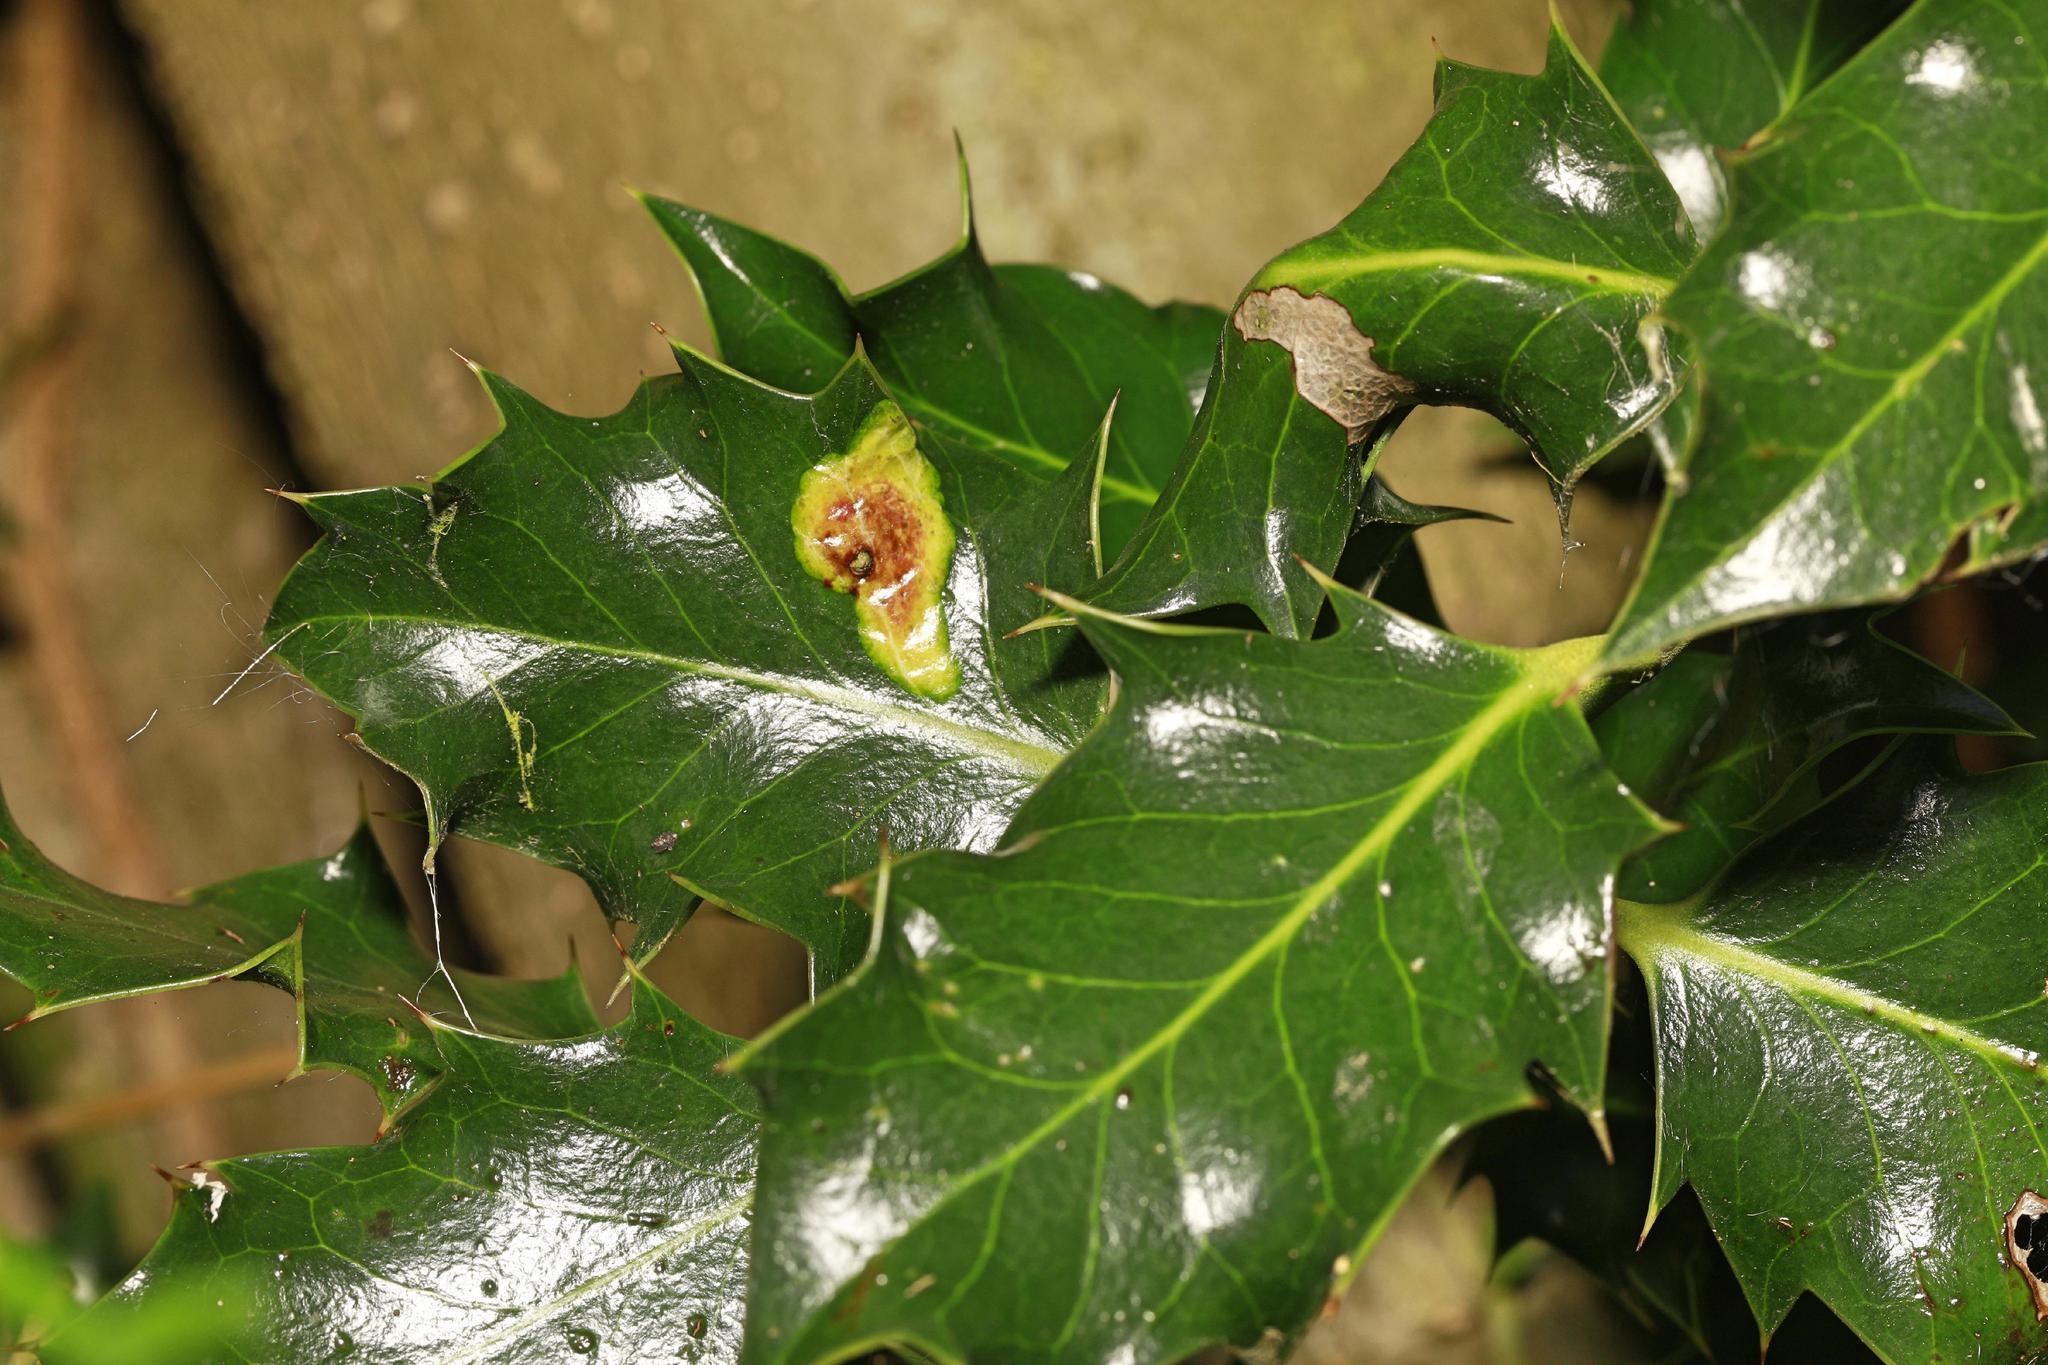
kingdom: Plantae
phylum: Tracheophyta
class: Magnoliopsida
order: Aquifoliales
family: Aquifoliaceae
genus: Ilex
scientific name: Ilex aquifolium
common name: English holly
